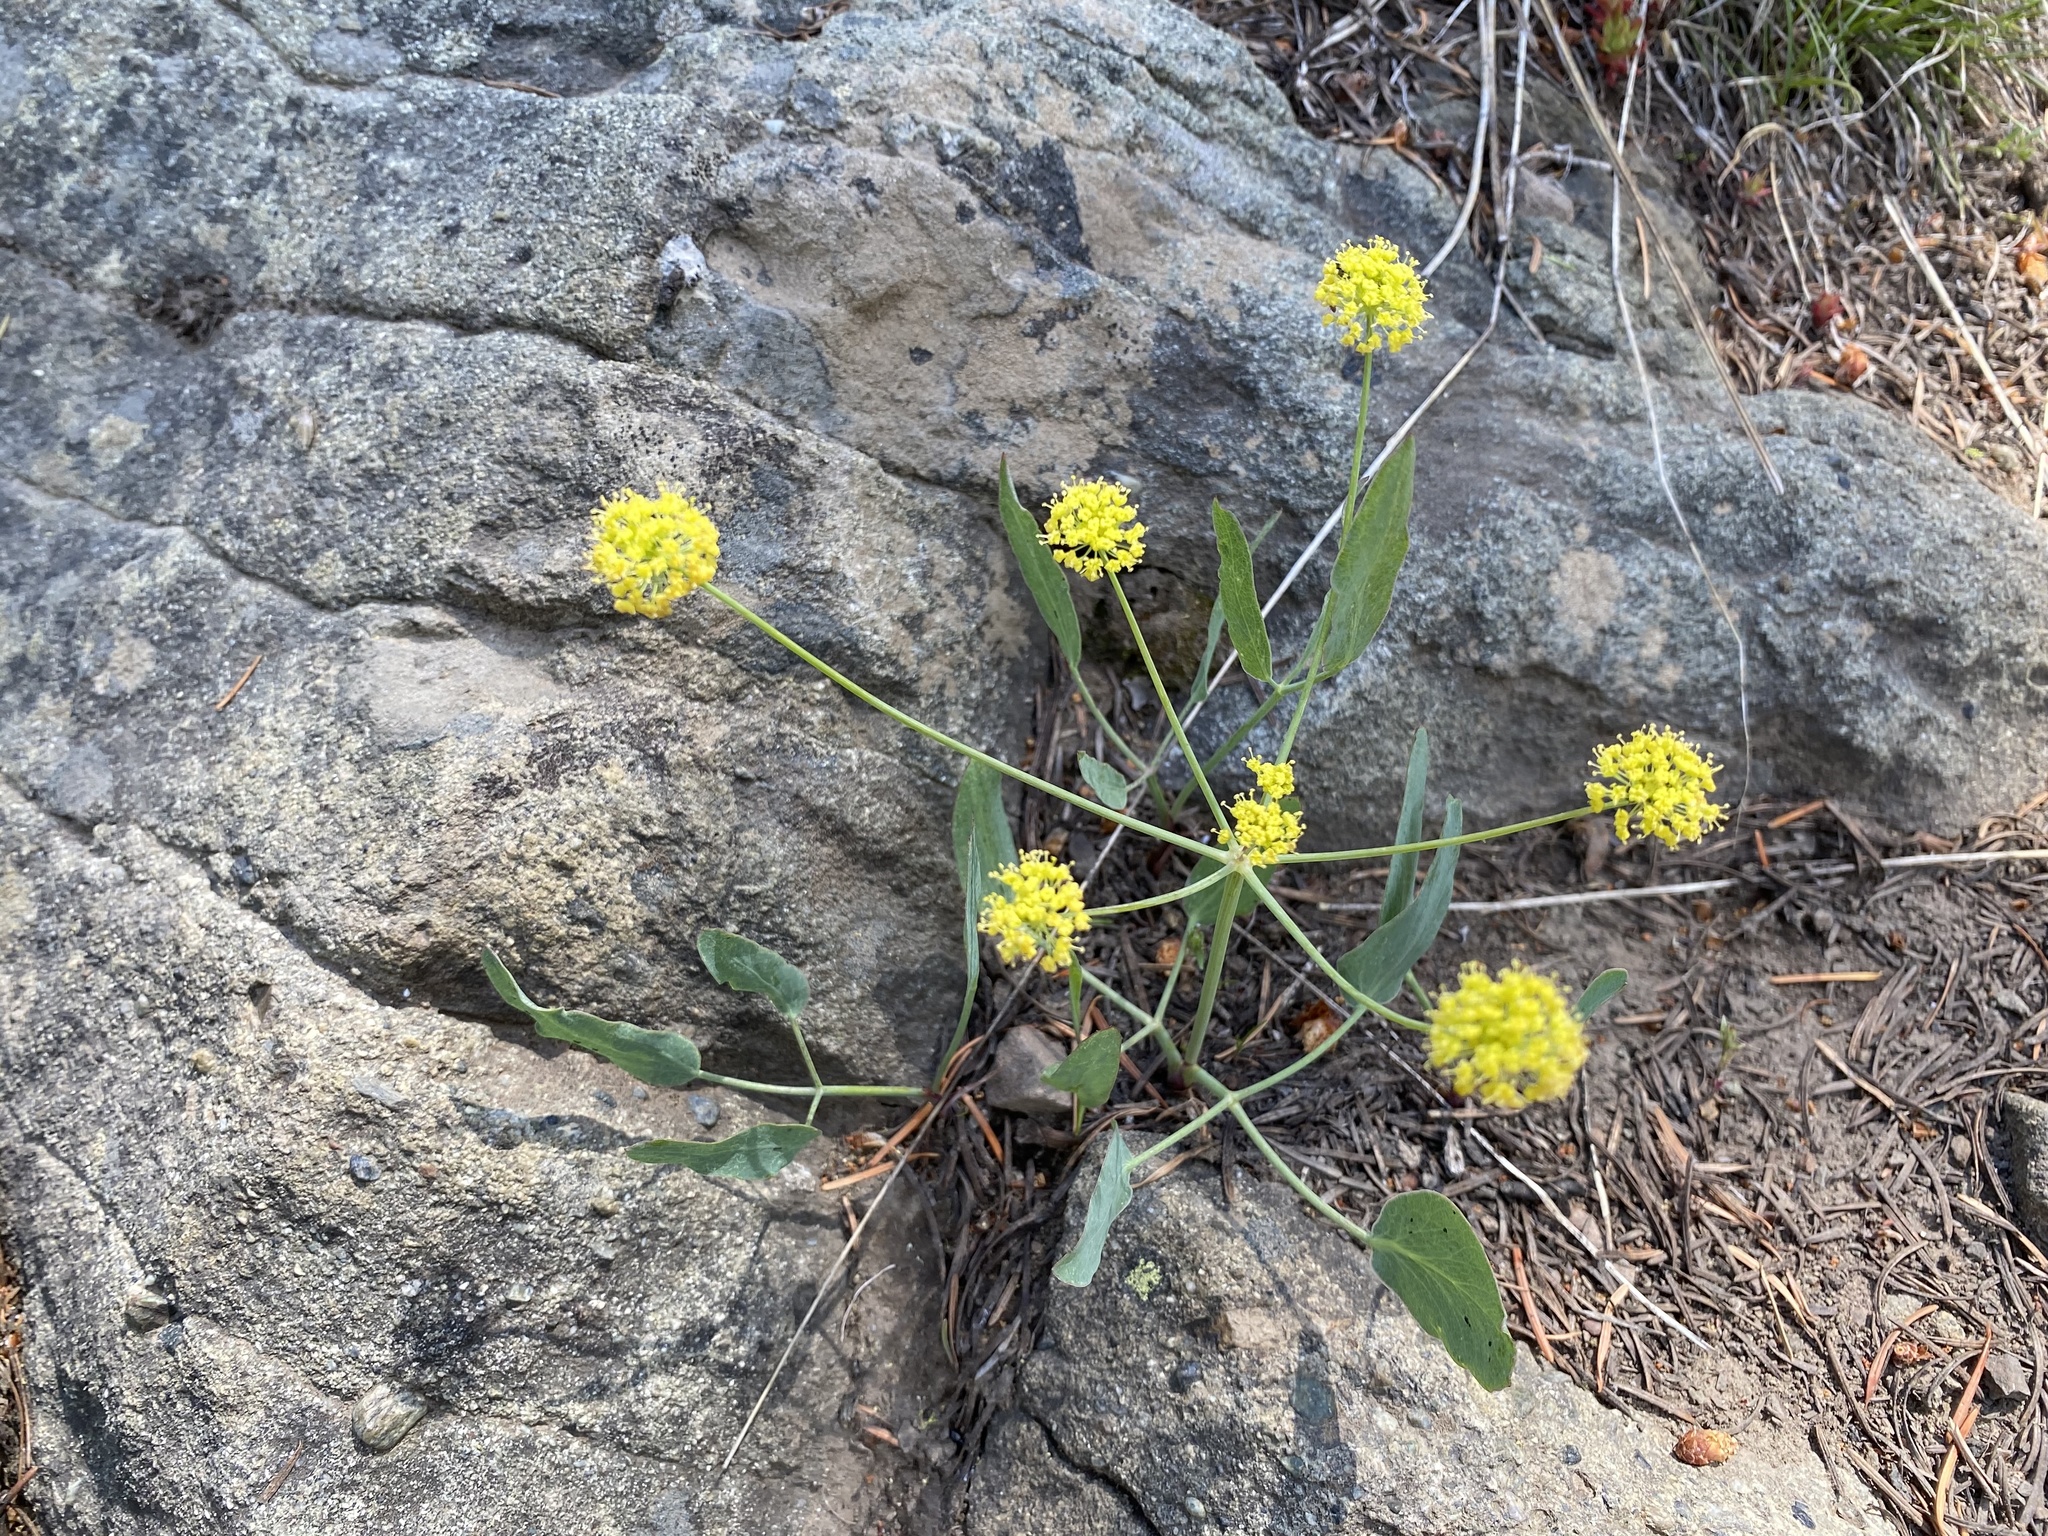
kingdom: Plantae
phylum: Tracheophyta
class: Magnoliopsida
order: Apiales
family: Apiaceae
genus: Lomatium
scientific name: Lomatium nudicaule
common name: Pestle lomatium
